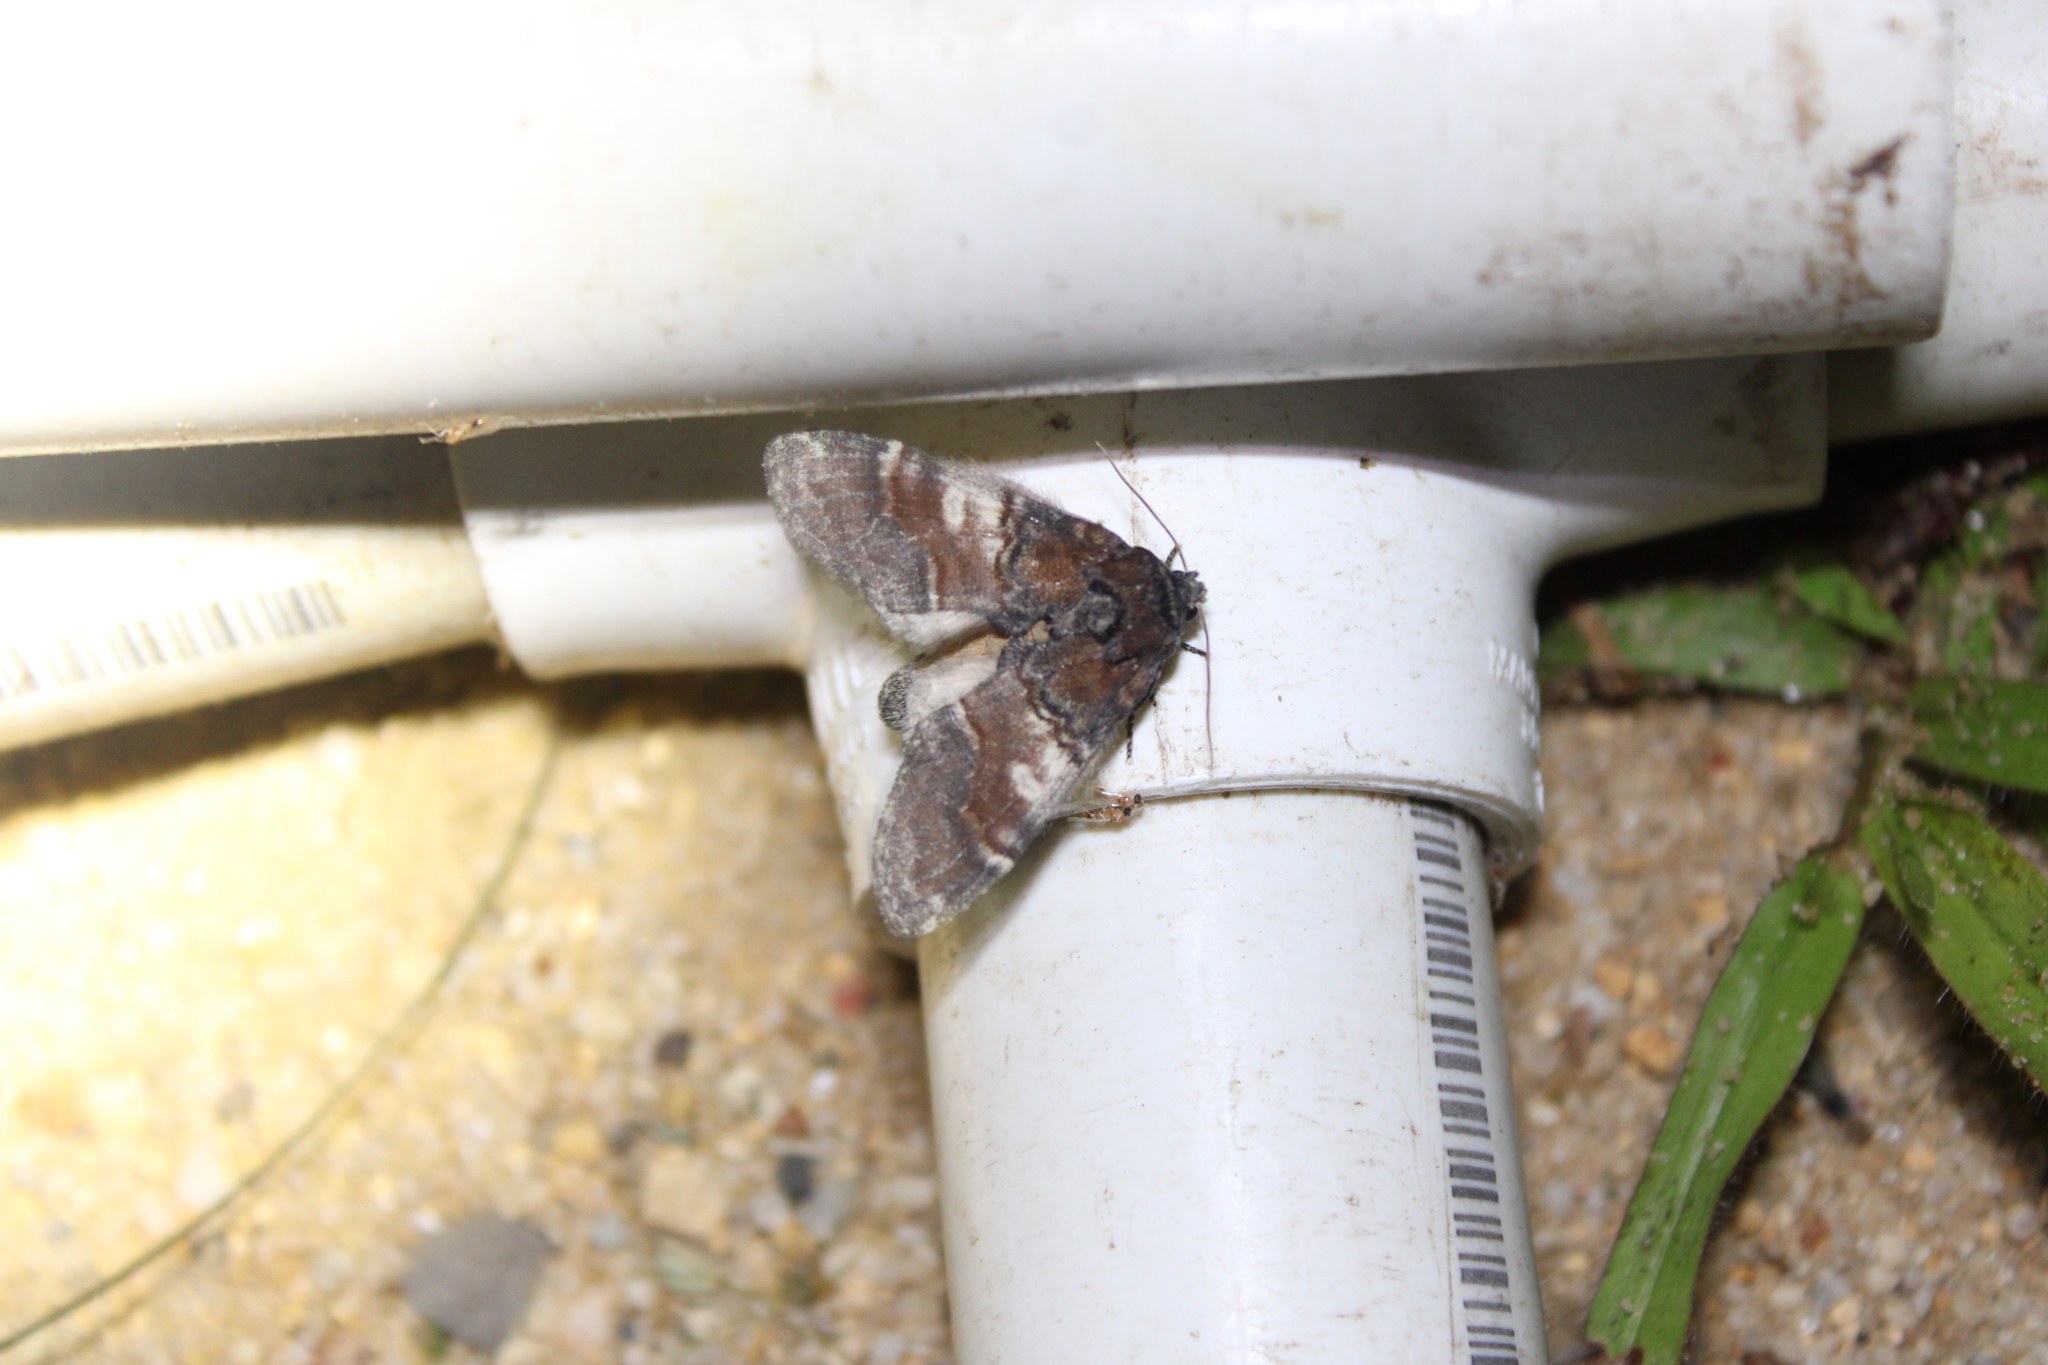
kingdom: Animalia
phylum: Arthropoda
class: Insecta
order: Lepidoptera
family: Notodontidae
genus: Peridea
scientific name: Peridea ferruginea
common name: Chocolate prominent
